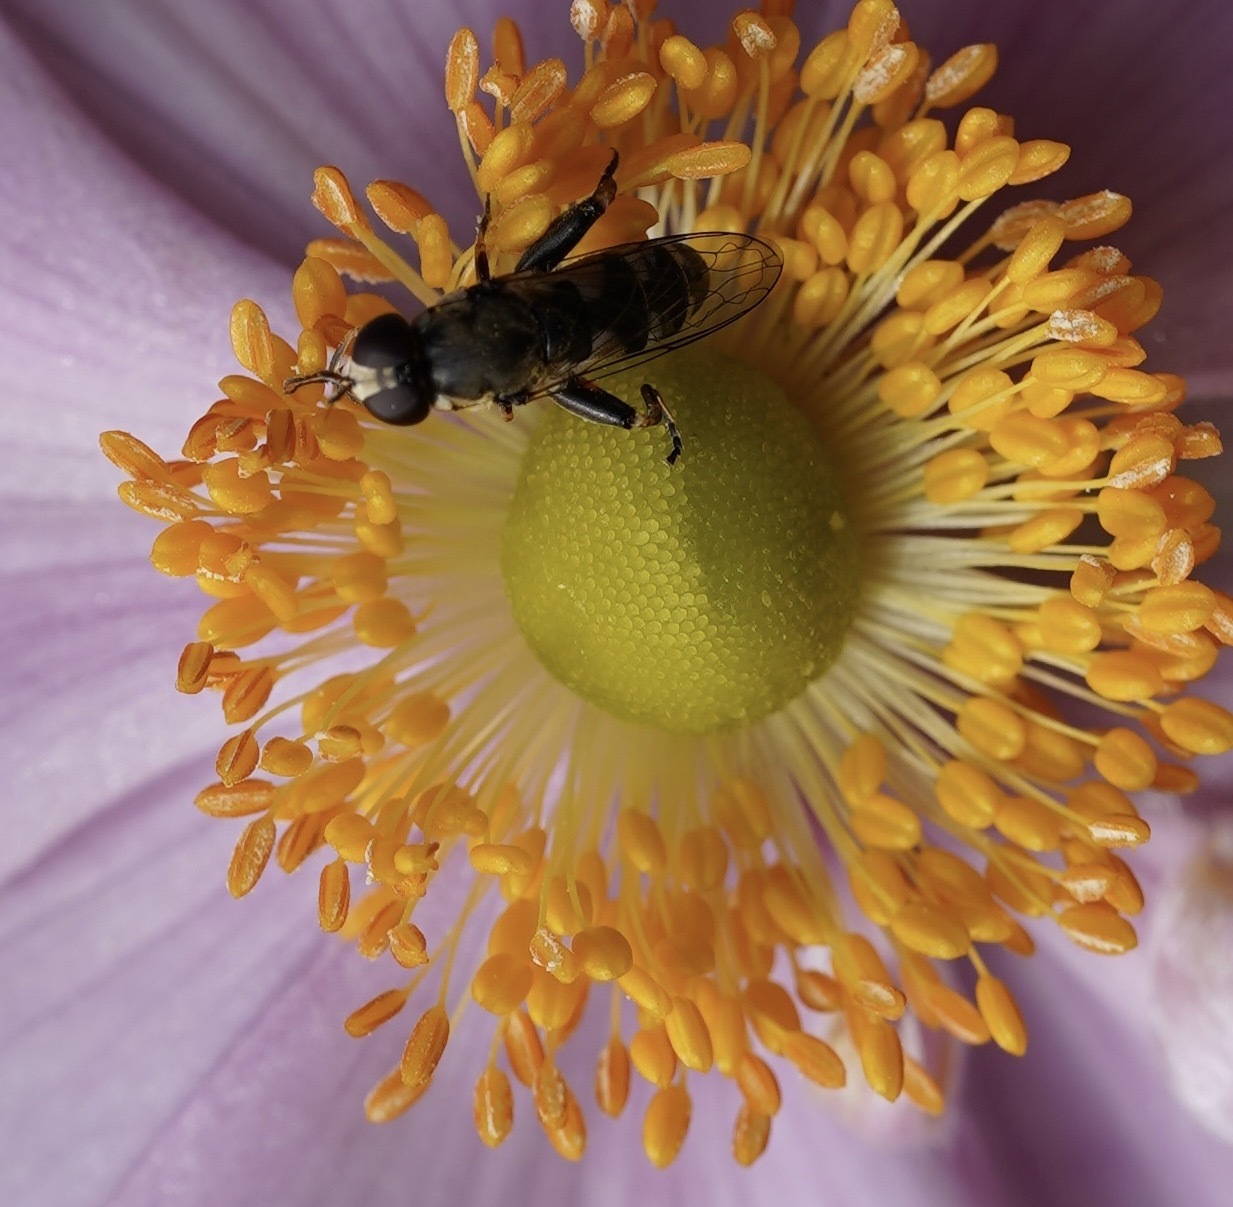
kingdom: Animalia
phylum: Arthropoda
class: Insecta
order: Diptera
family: Syrphidae
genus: Syritta
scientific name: Syritta pipiens
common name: Hover fly
